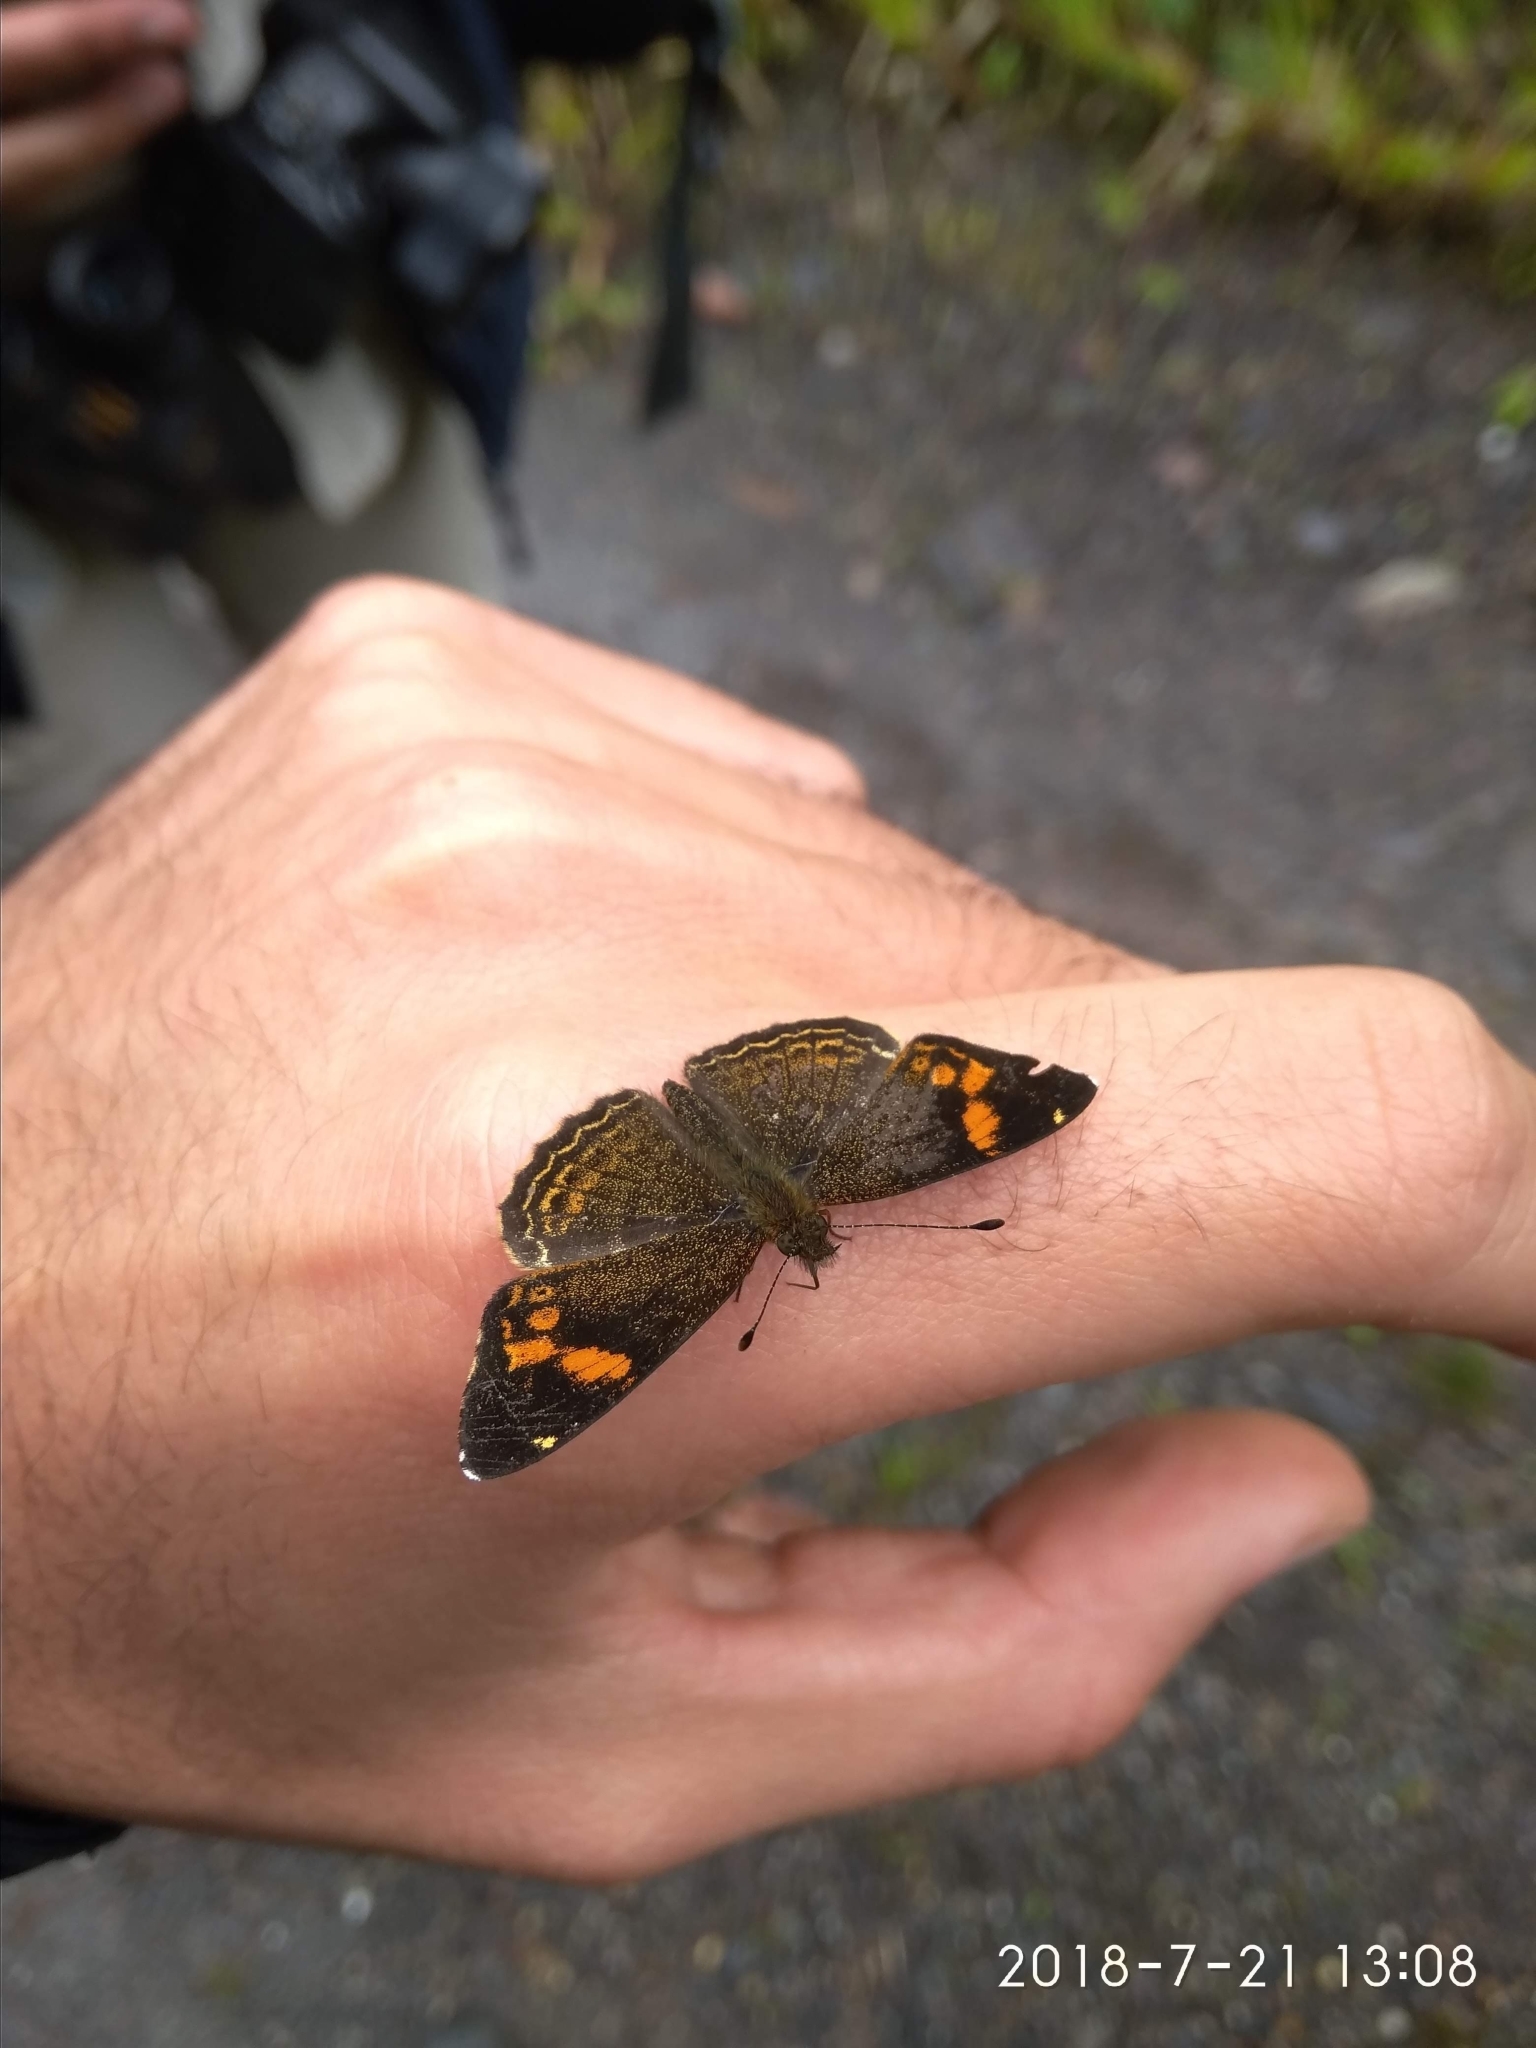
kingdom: Animalia
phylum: Arthropoda
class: Insecta
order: Lepidoptera
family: Nymphalidae
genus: Telenassa
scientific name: Telenassa delphia
